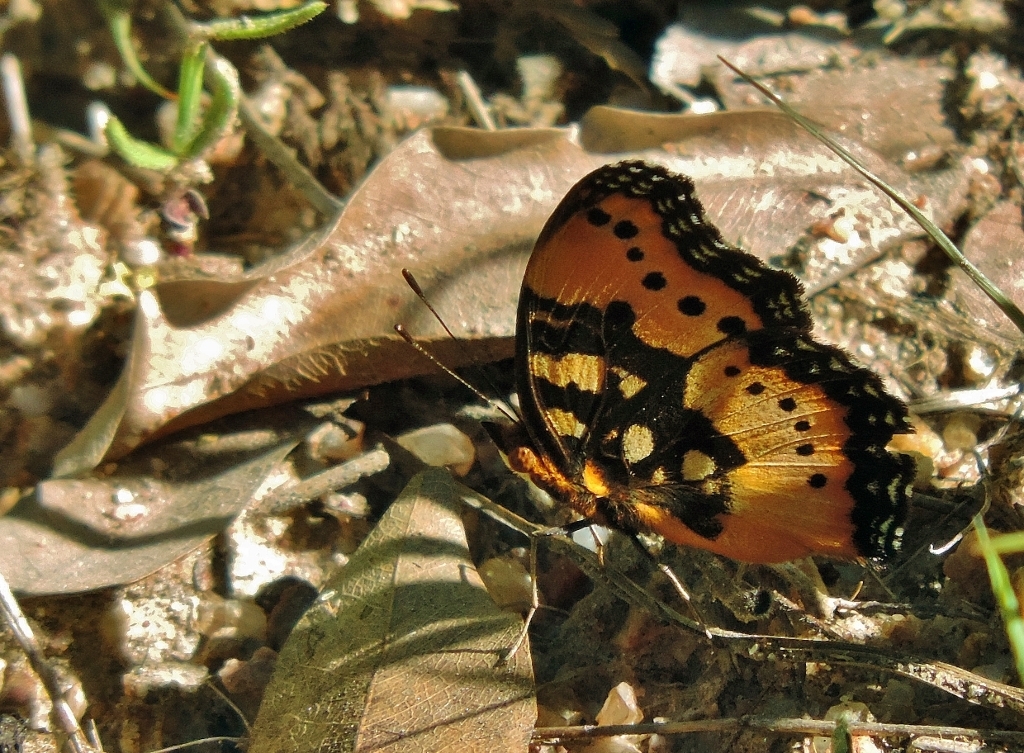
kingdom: Animalia
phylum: Arthropoda
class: Insecta
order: Lepidoptera
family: Nymphalidae
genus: Junonia
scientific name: Junonia antilope
